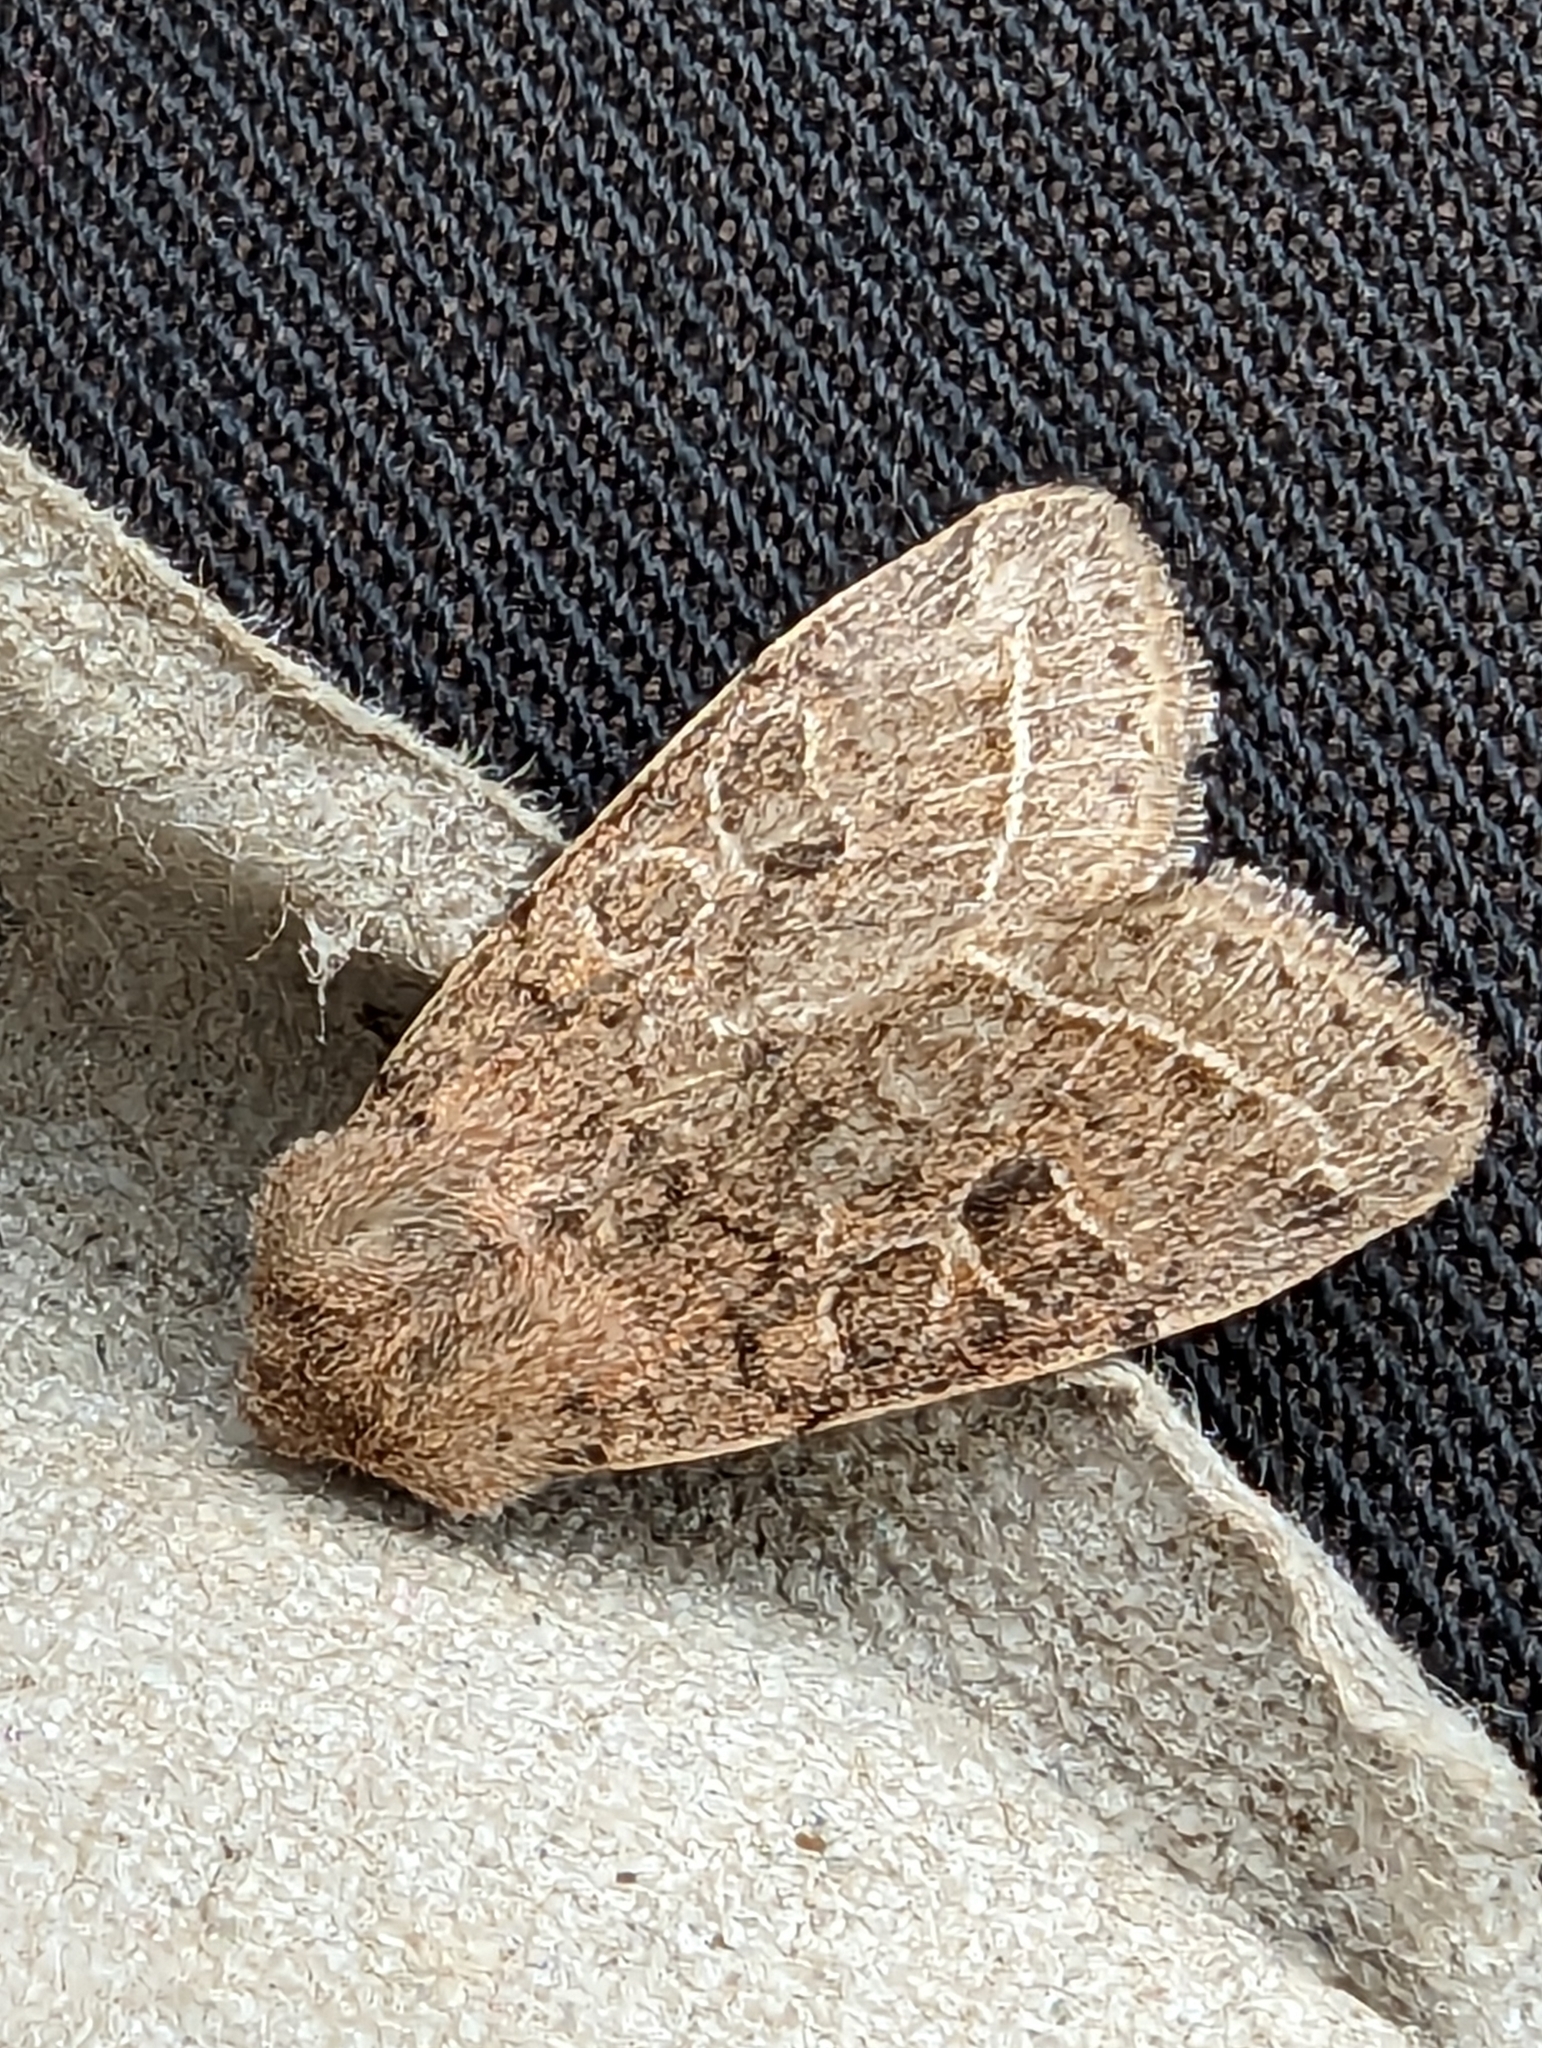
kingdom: Animalia
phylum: Arthropoda
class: Insecta
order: Lepidoptera
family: Noctuidae
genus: Orthosia
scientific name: Orthosia cerasi
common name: Common quaker
